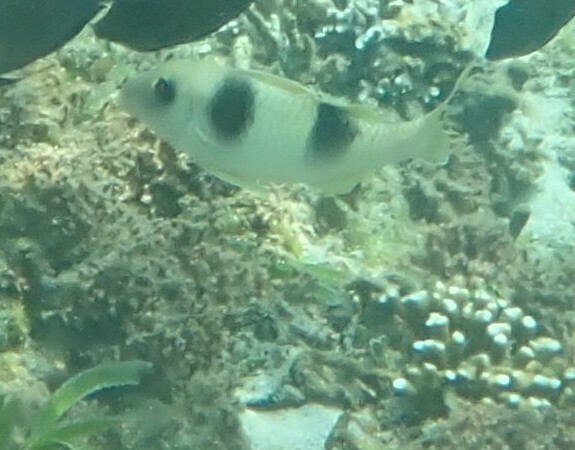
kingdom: Animalia
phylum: Chordata
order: Perciformes
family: Mullidae
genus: Parupeneus
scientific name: Parupeneus crassilabris
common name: Doublebar goatfish
